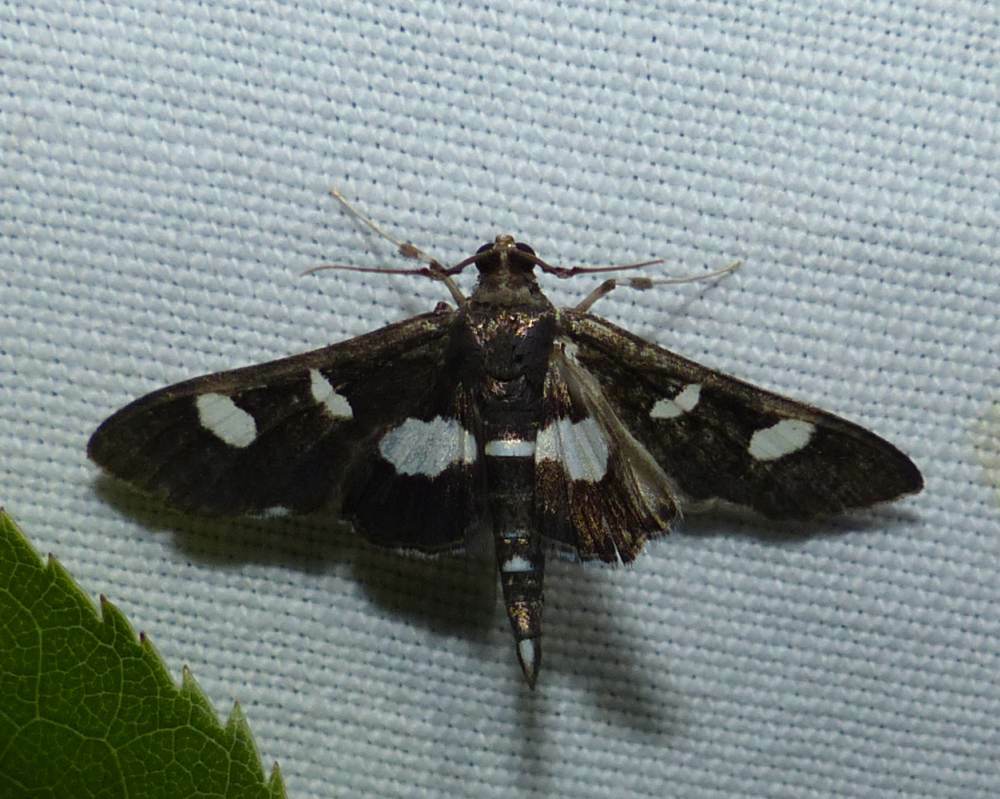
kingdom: Animalia
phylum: Arthropoda
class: Insecta
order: Lepidoptera
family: Crambidae
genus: Desmia
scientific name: Desmia
